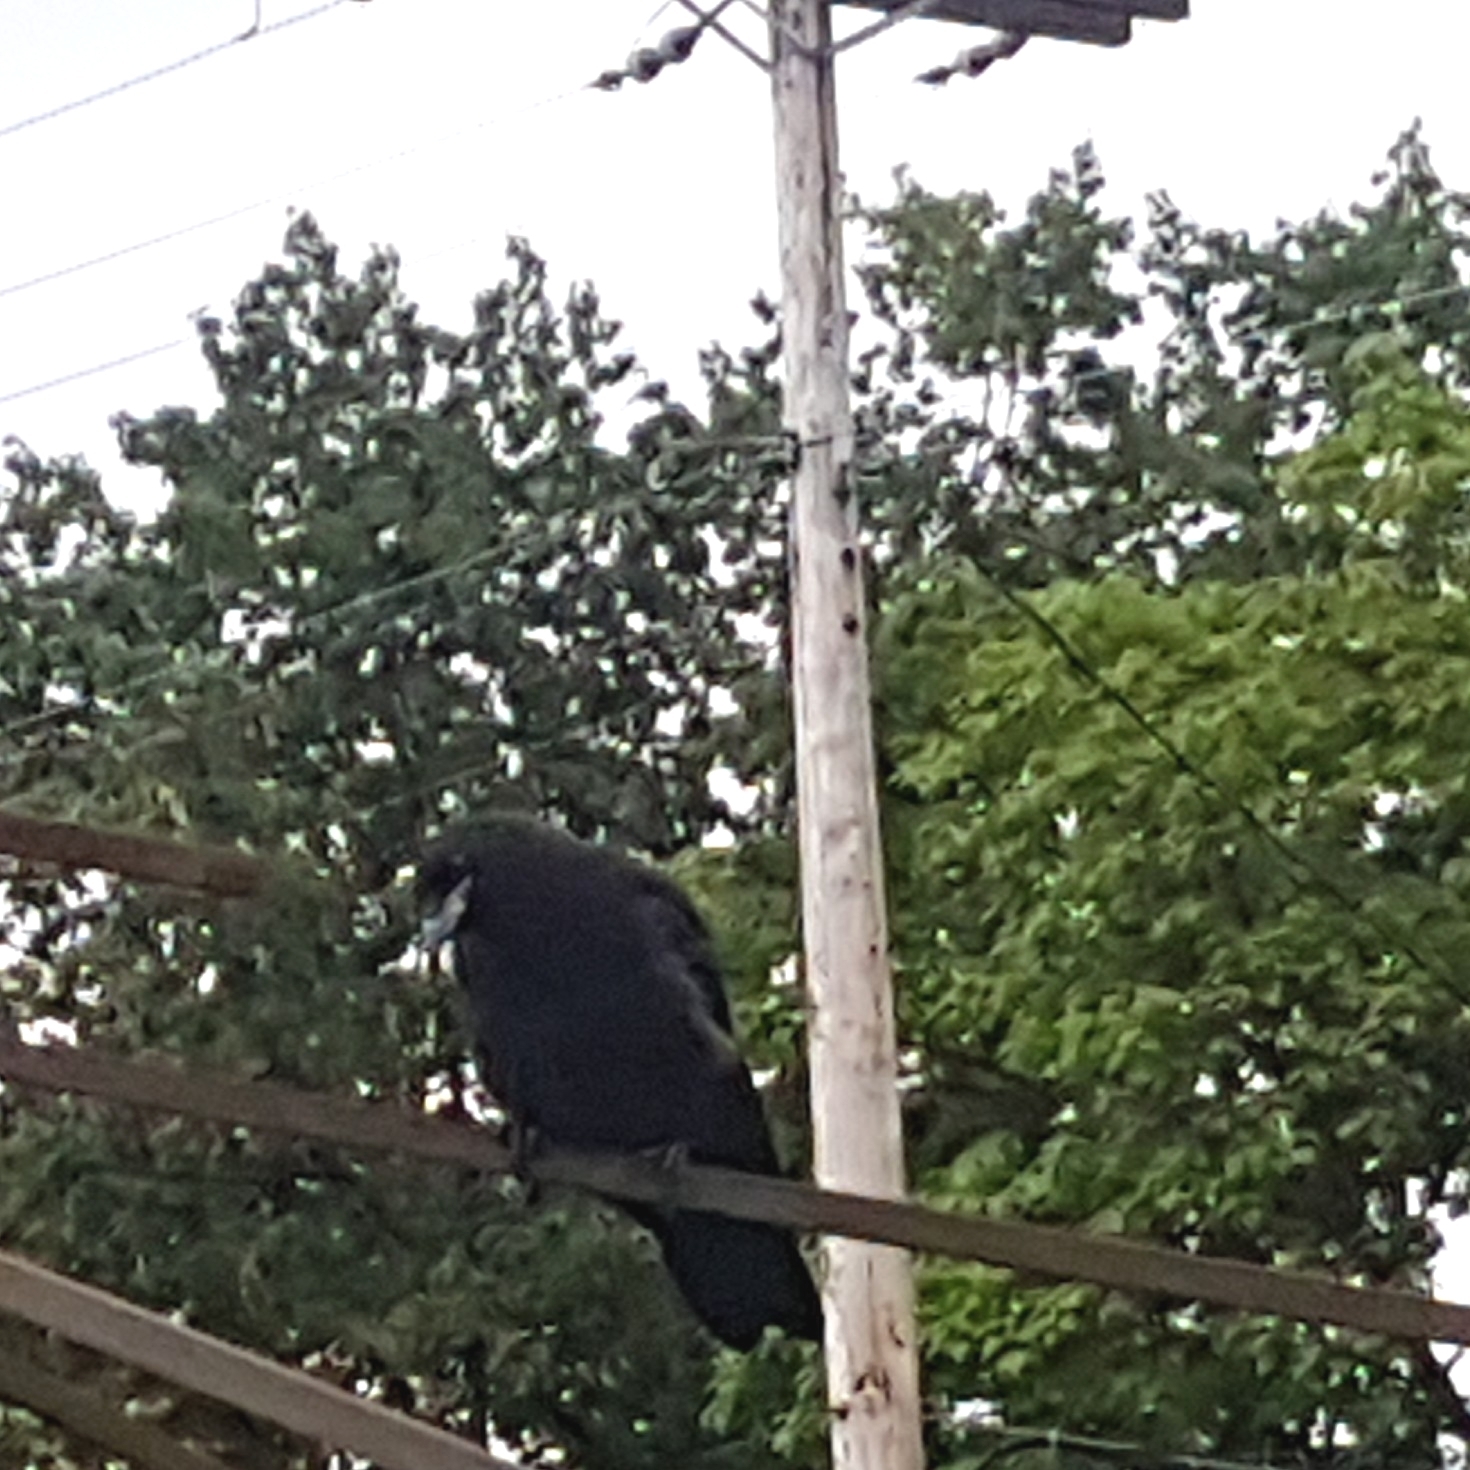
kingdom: Animalia
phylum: Chordata
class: Aves
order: Passeriformes
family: Corvidae
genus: Corvus
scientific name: Corvus brachyrhynchos
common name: American crow
